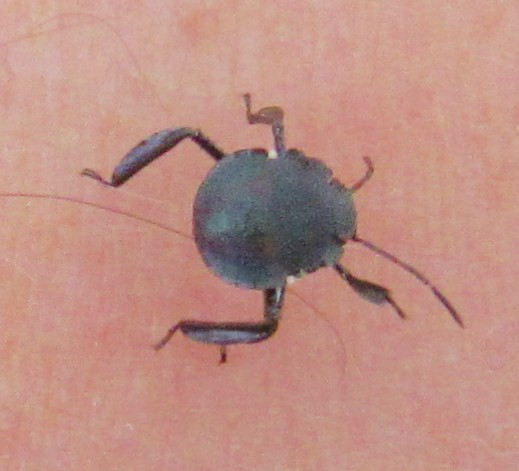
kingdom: Animalia
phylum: Arthropoda
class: Insecta
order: Hemiptera
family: Pentatomidae
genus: Pellaea
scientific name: Pellaea stictica
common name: Stink bug
